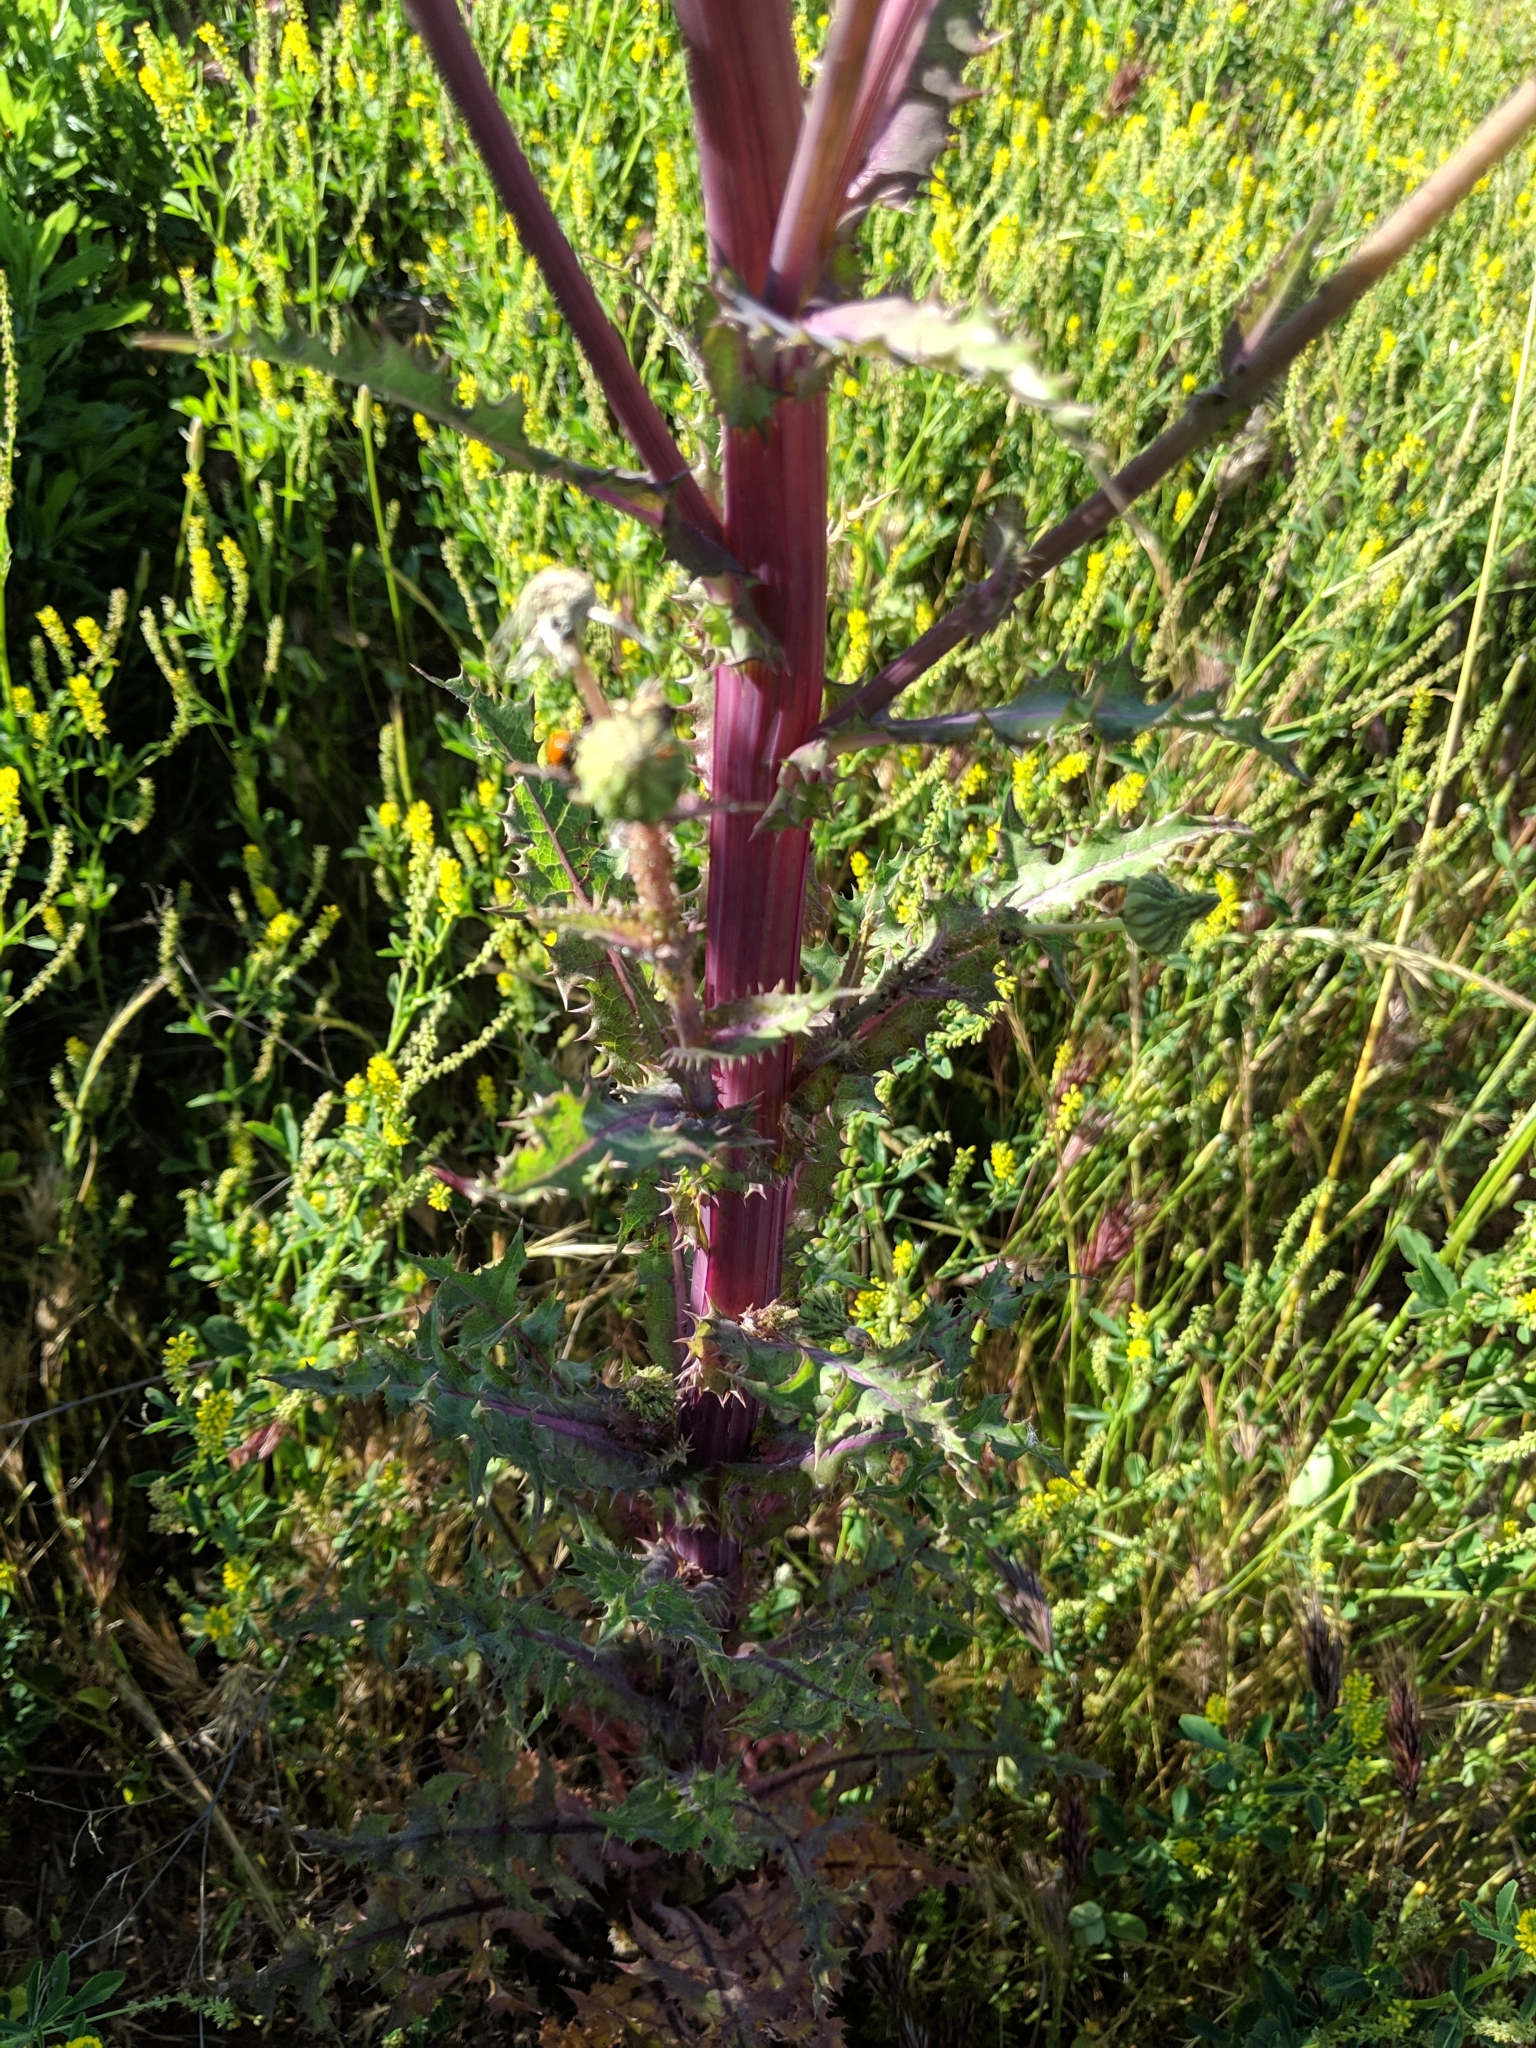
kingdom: Plantae
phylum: Tracheophyta
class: Magnoliopsida
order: Asterales
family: Asteraceae
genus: Sonchus
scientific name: Sonchus asper
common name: Prickly sow-thistle
